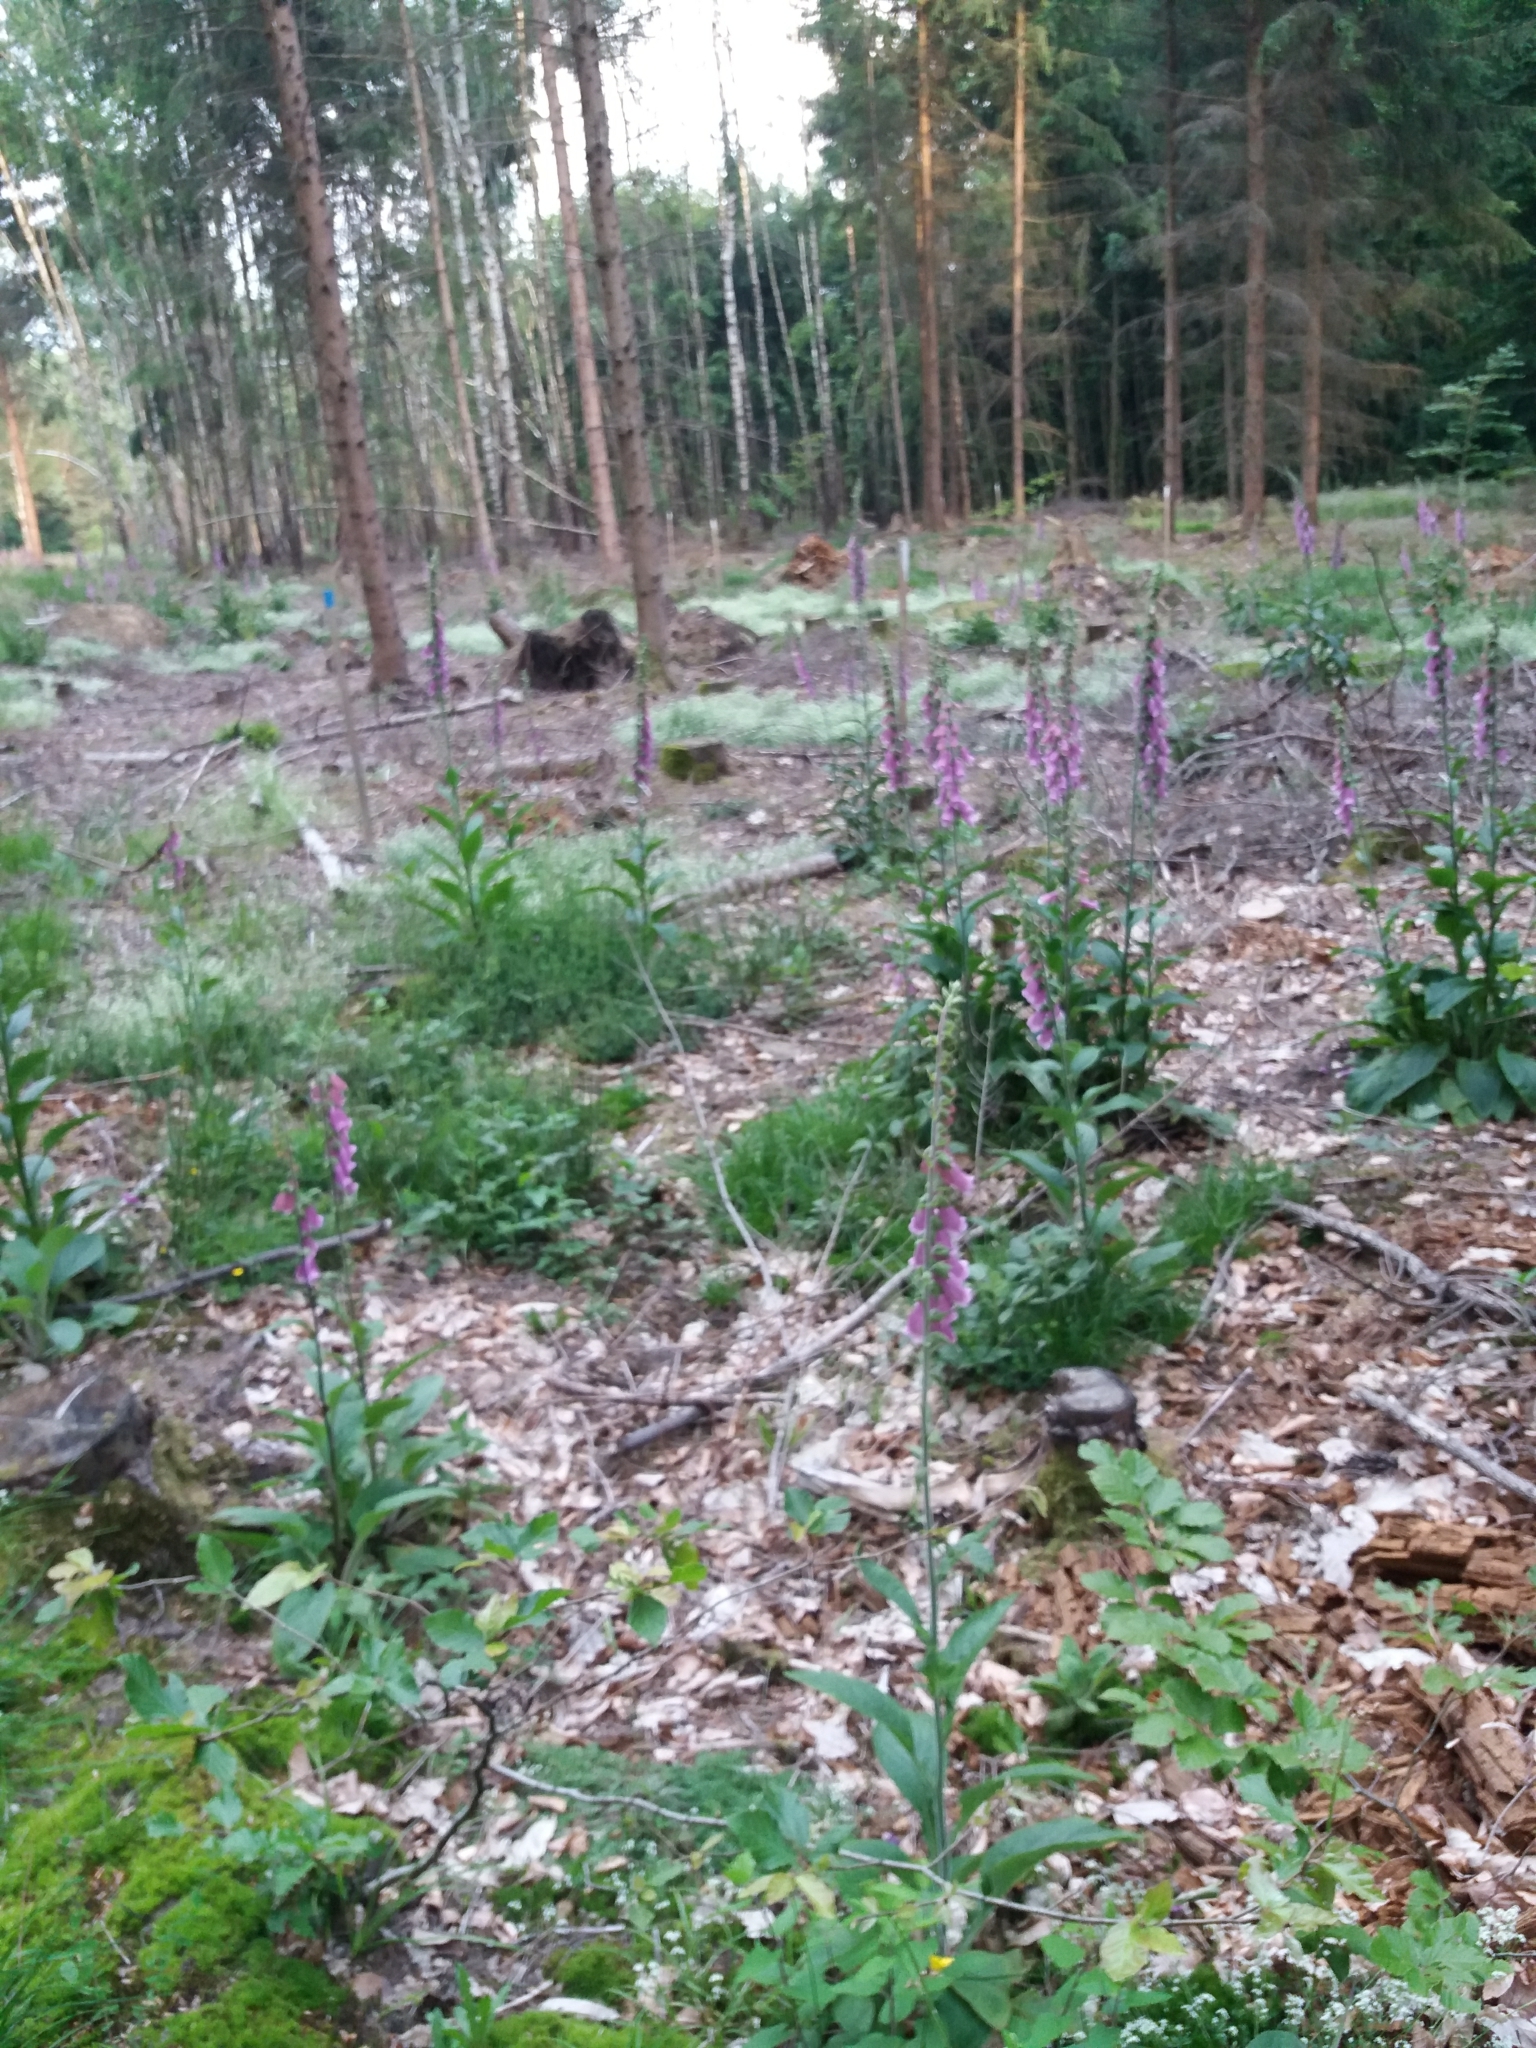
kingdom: Plantae
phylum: Tracheophyta
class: Magnoliopsida
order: Lamiales
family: Plantaginaceae
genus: Digitalis
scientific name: Digitalis purpurea
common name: Foxglove
